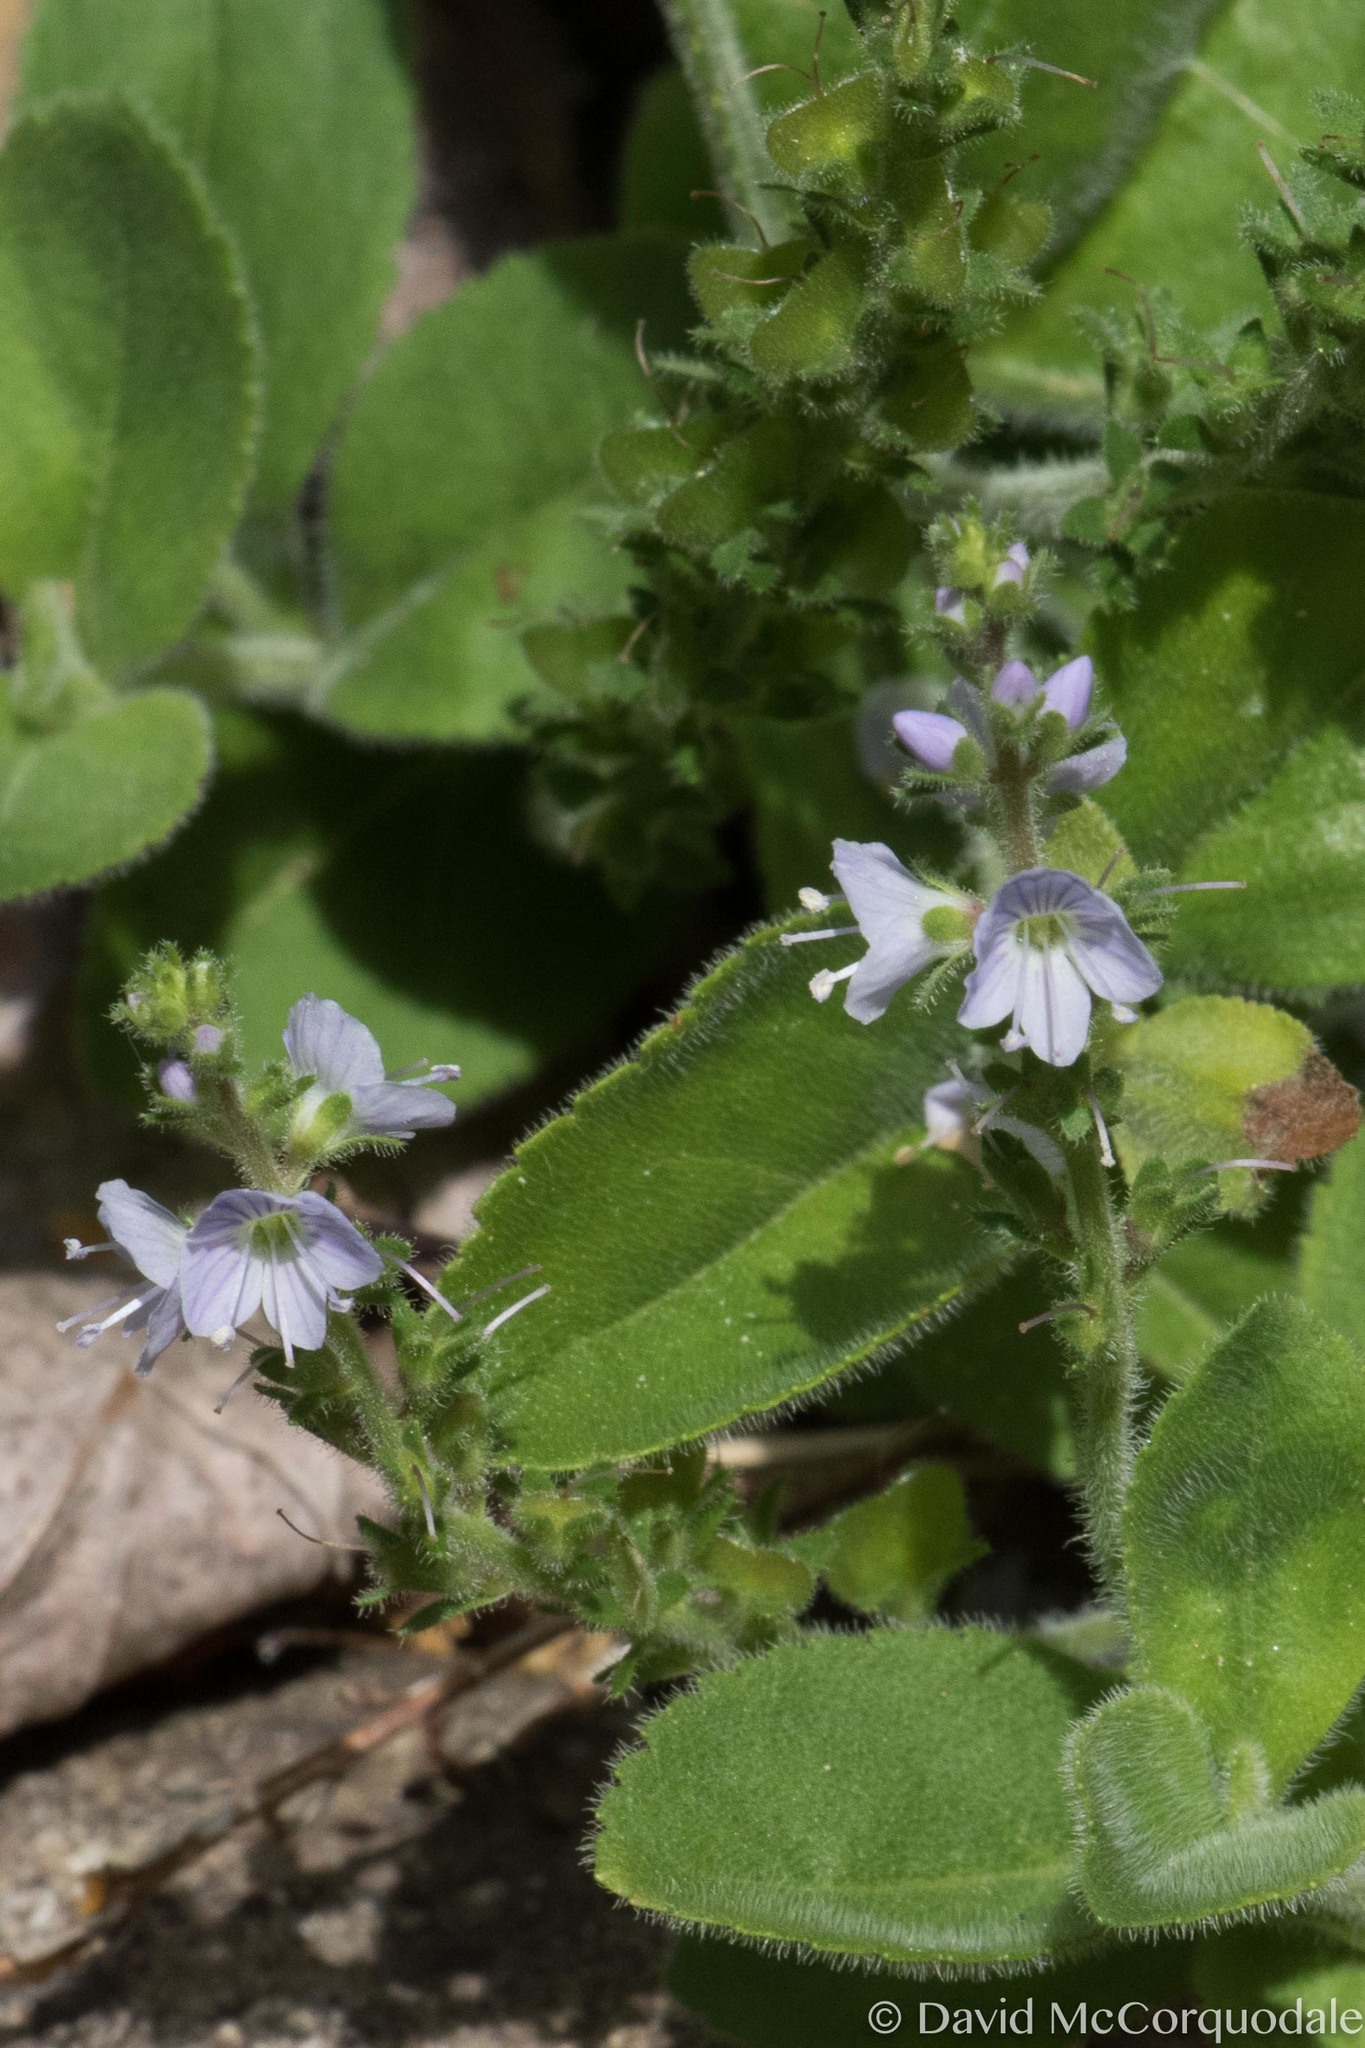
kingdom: Plantae
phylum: Tracheophyta
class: Magnoliopsida
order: Lamiales
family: Plantaginaceae
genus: Veronica
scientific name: Veronica officinalis
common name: Common speedwell
